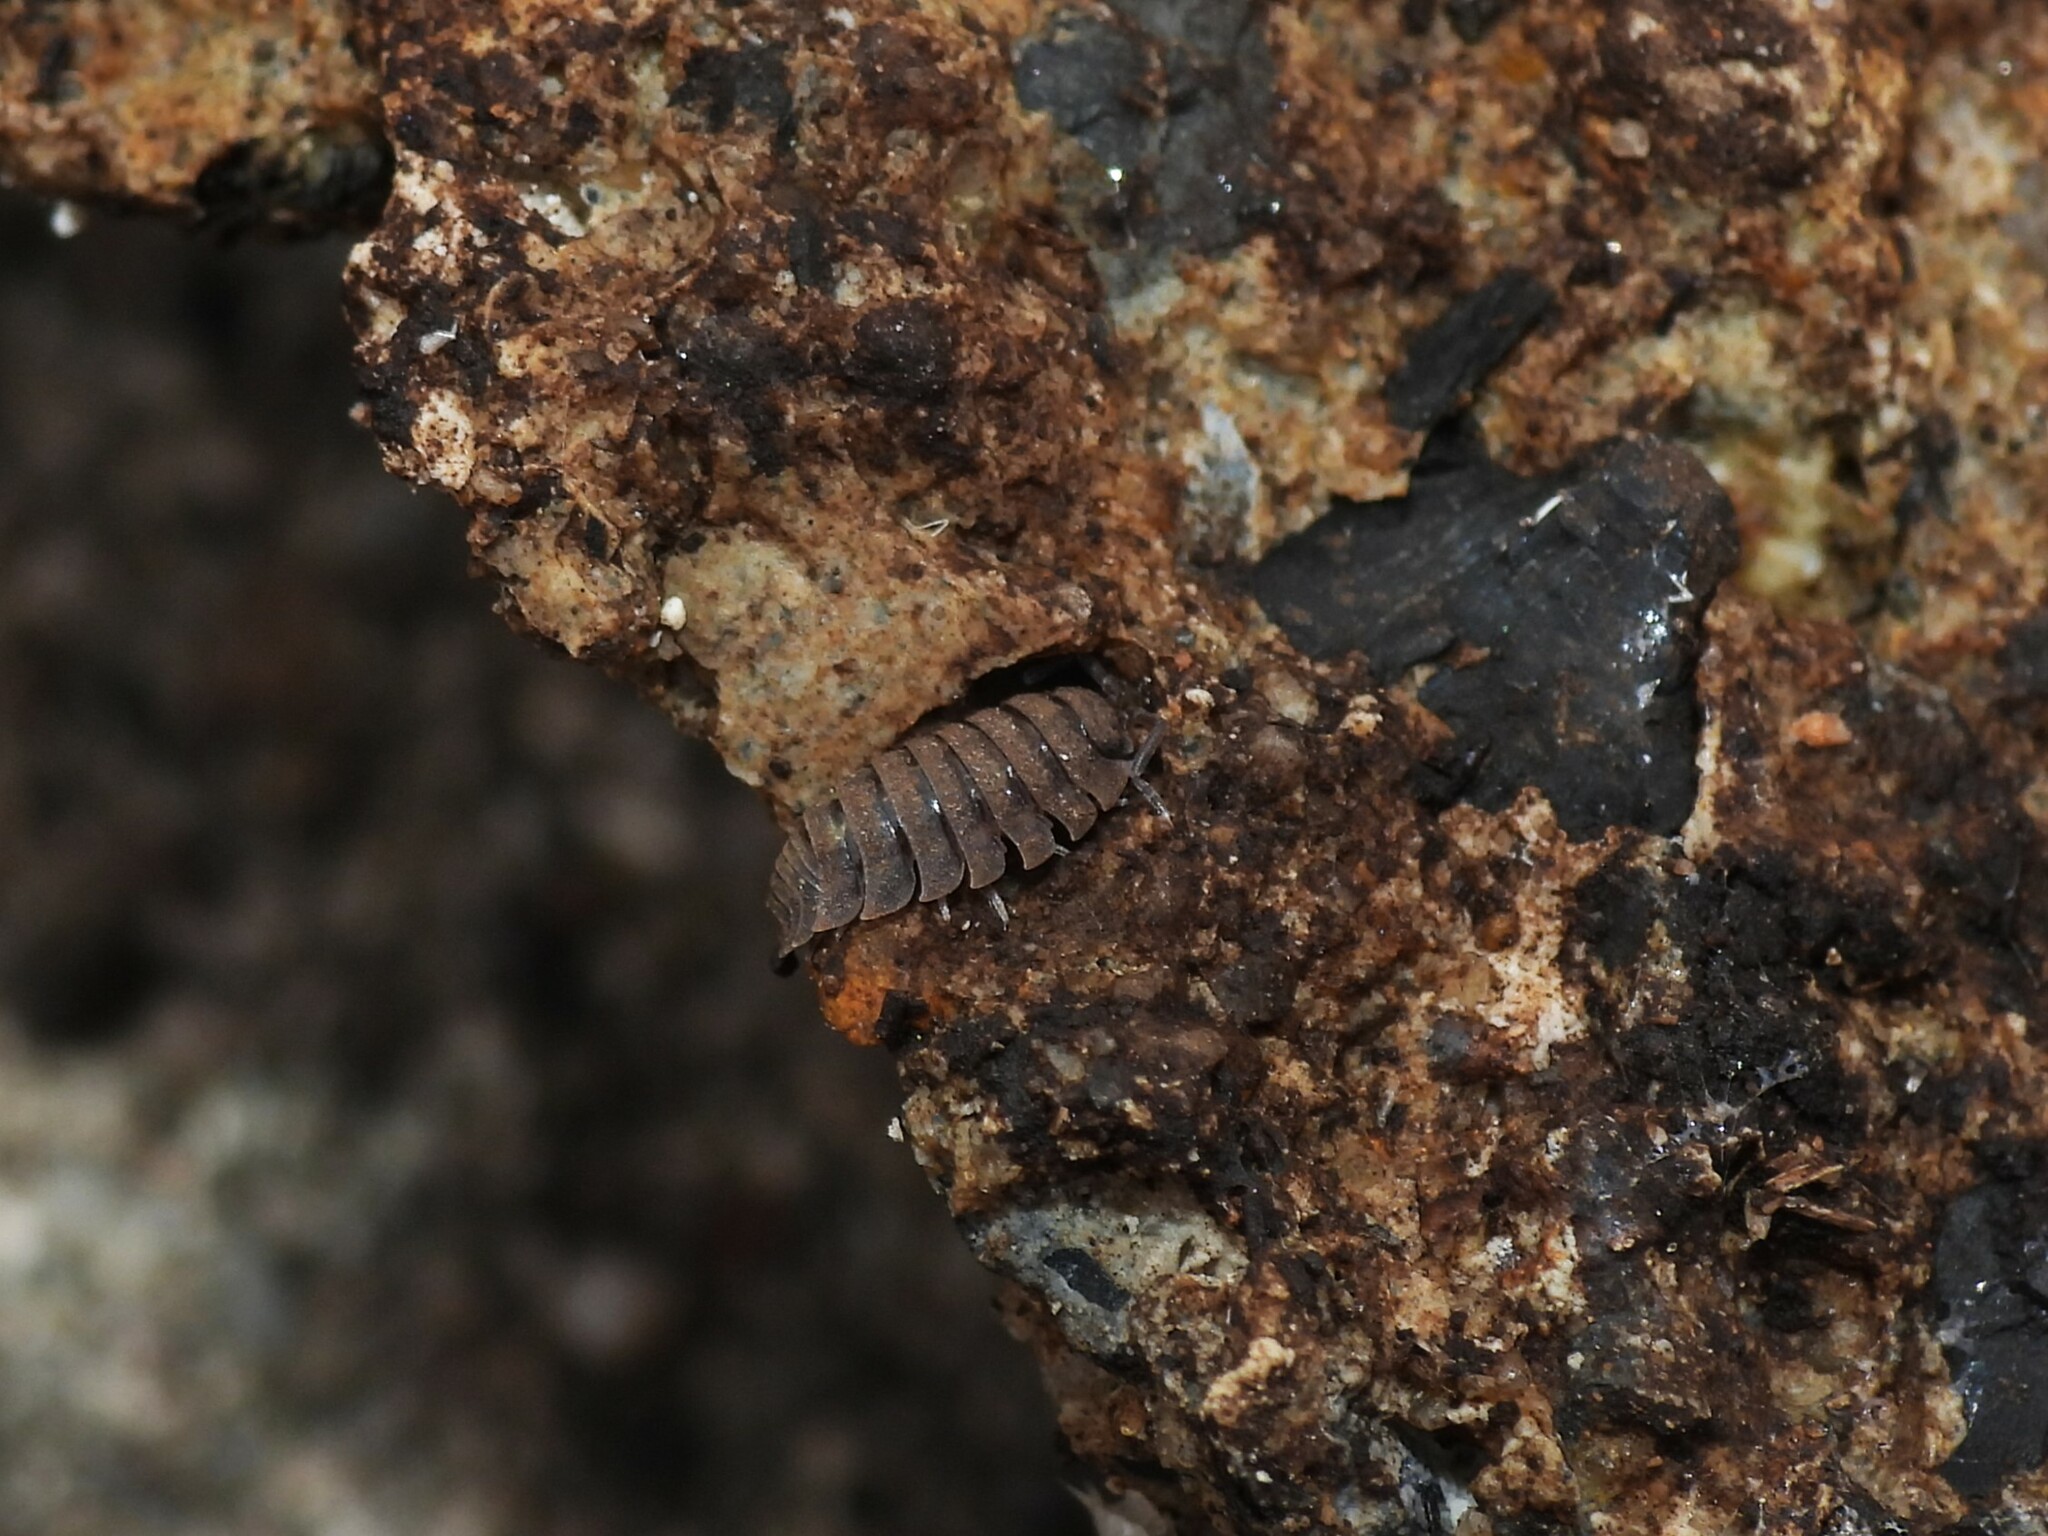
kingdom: Animalia
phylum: Arthropoda
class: Malacostraca
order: Isopoda
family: Oniscidae
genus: Oniscus
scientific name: Oniscus asellus
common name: Common shiny woodlouse
